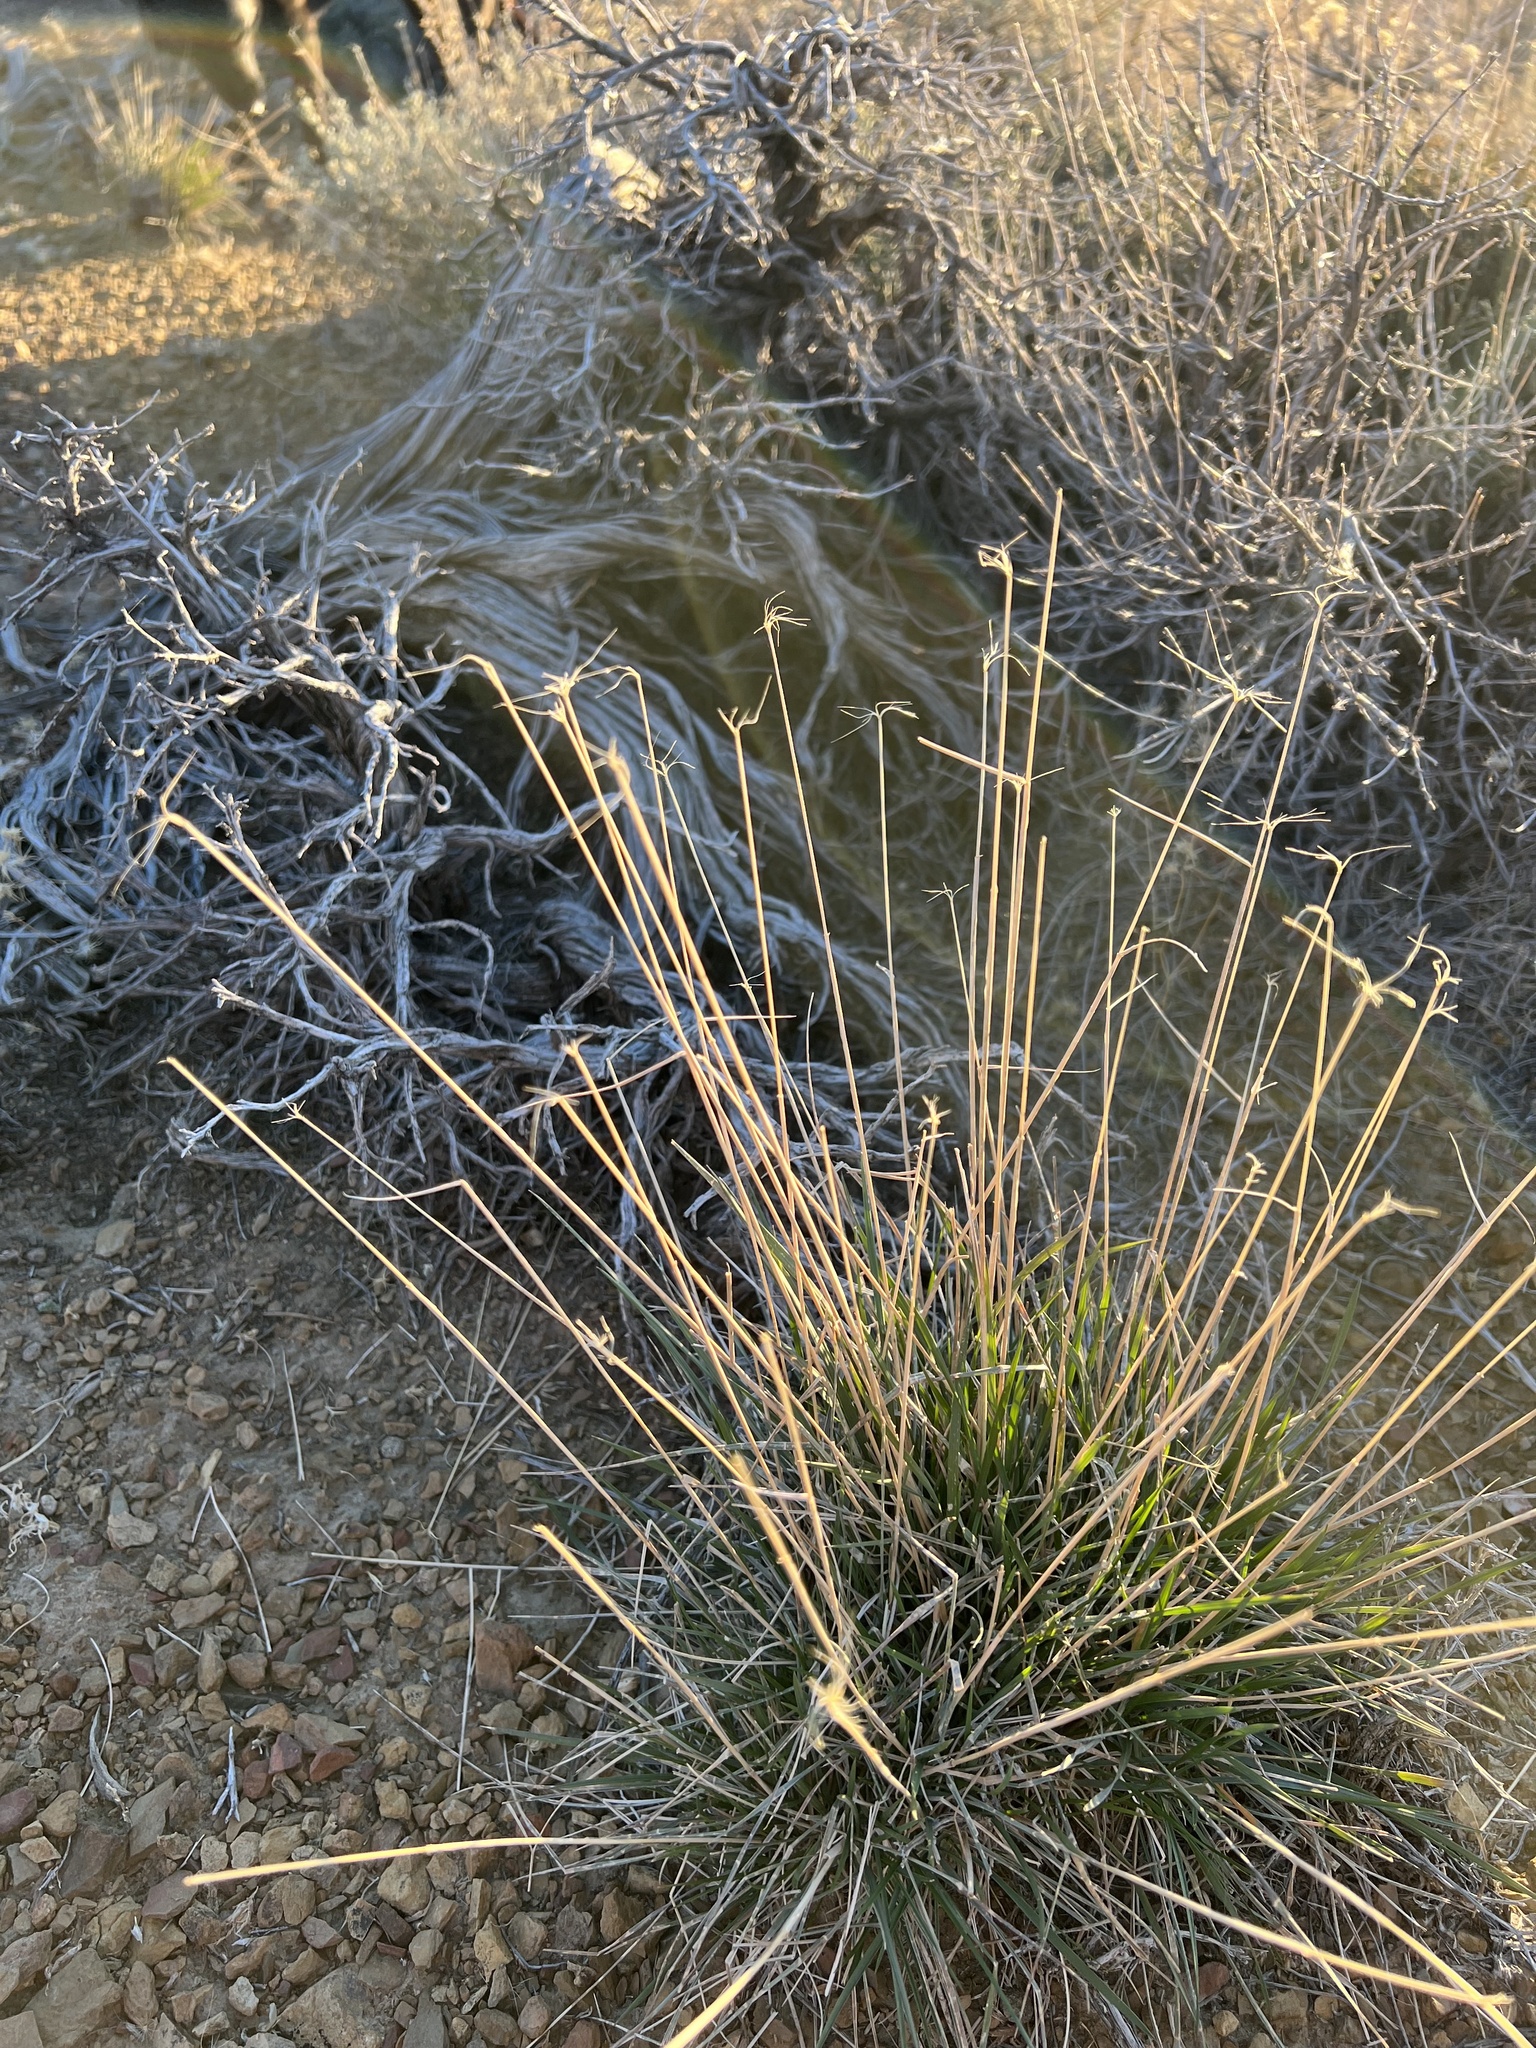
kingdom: Plantae
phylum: Tracheophyta
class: Liliopsida
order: Poales
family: Poaceae
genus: Elymus
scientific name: Elymus elymoides
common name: Bottlebrush squirreltail
